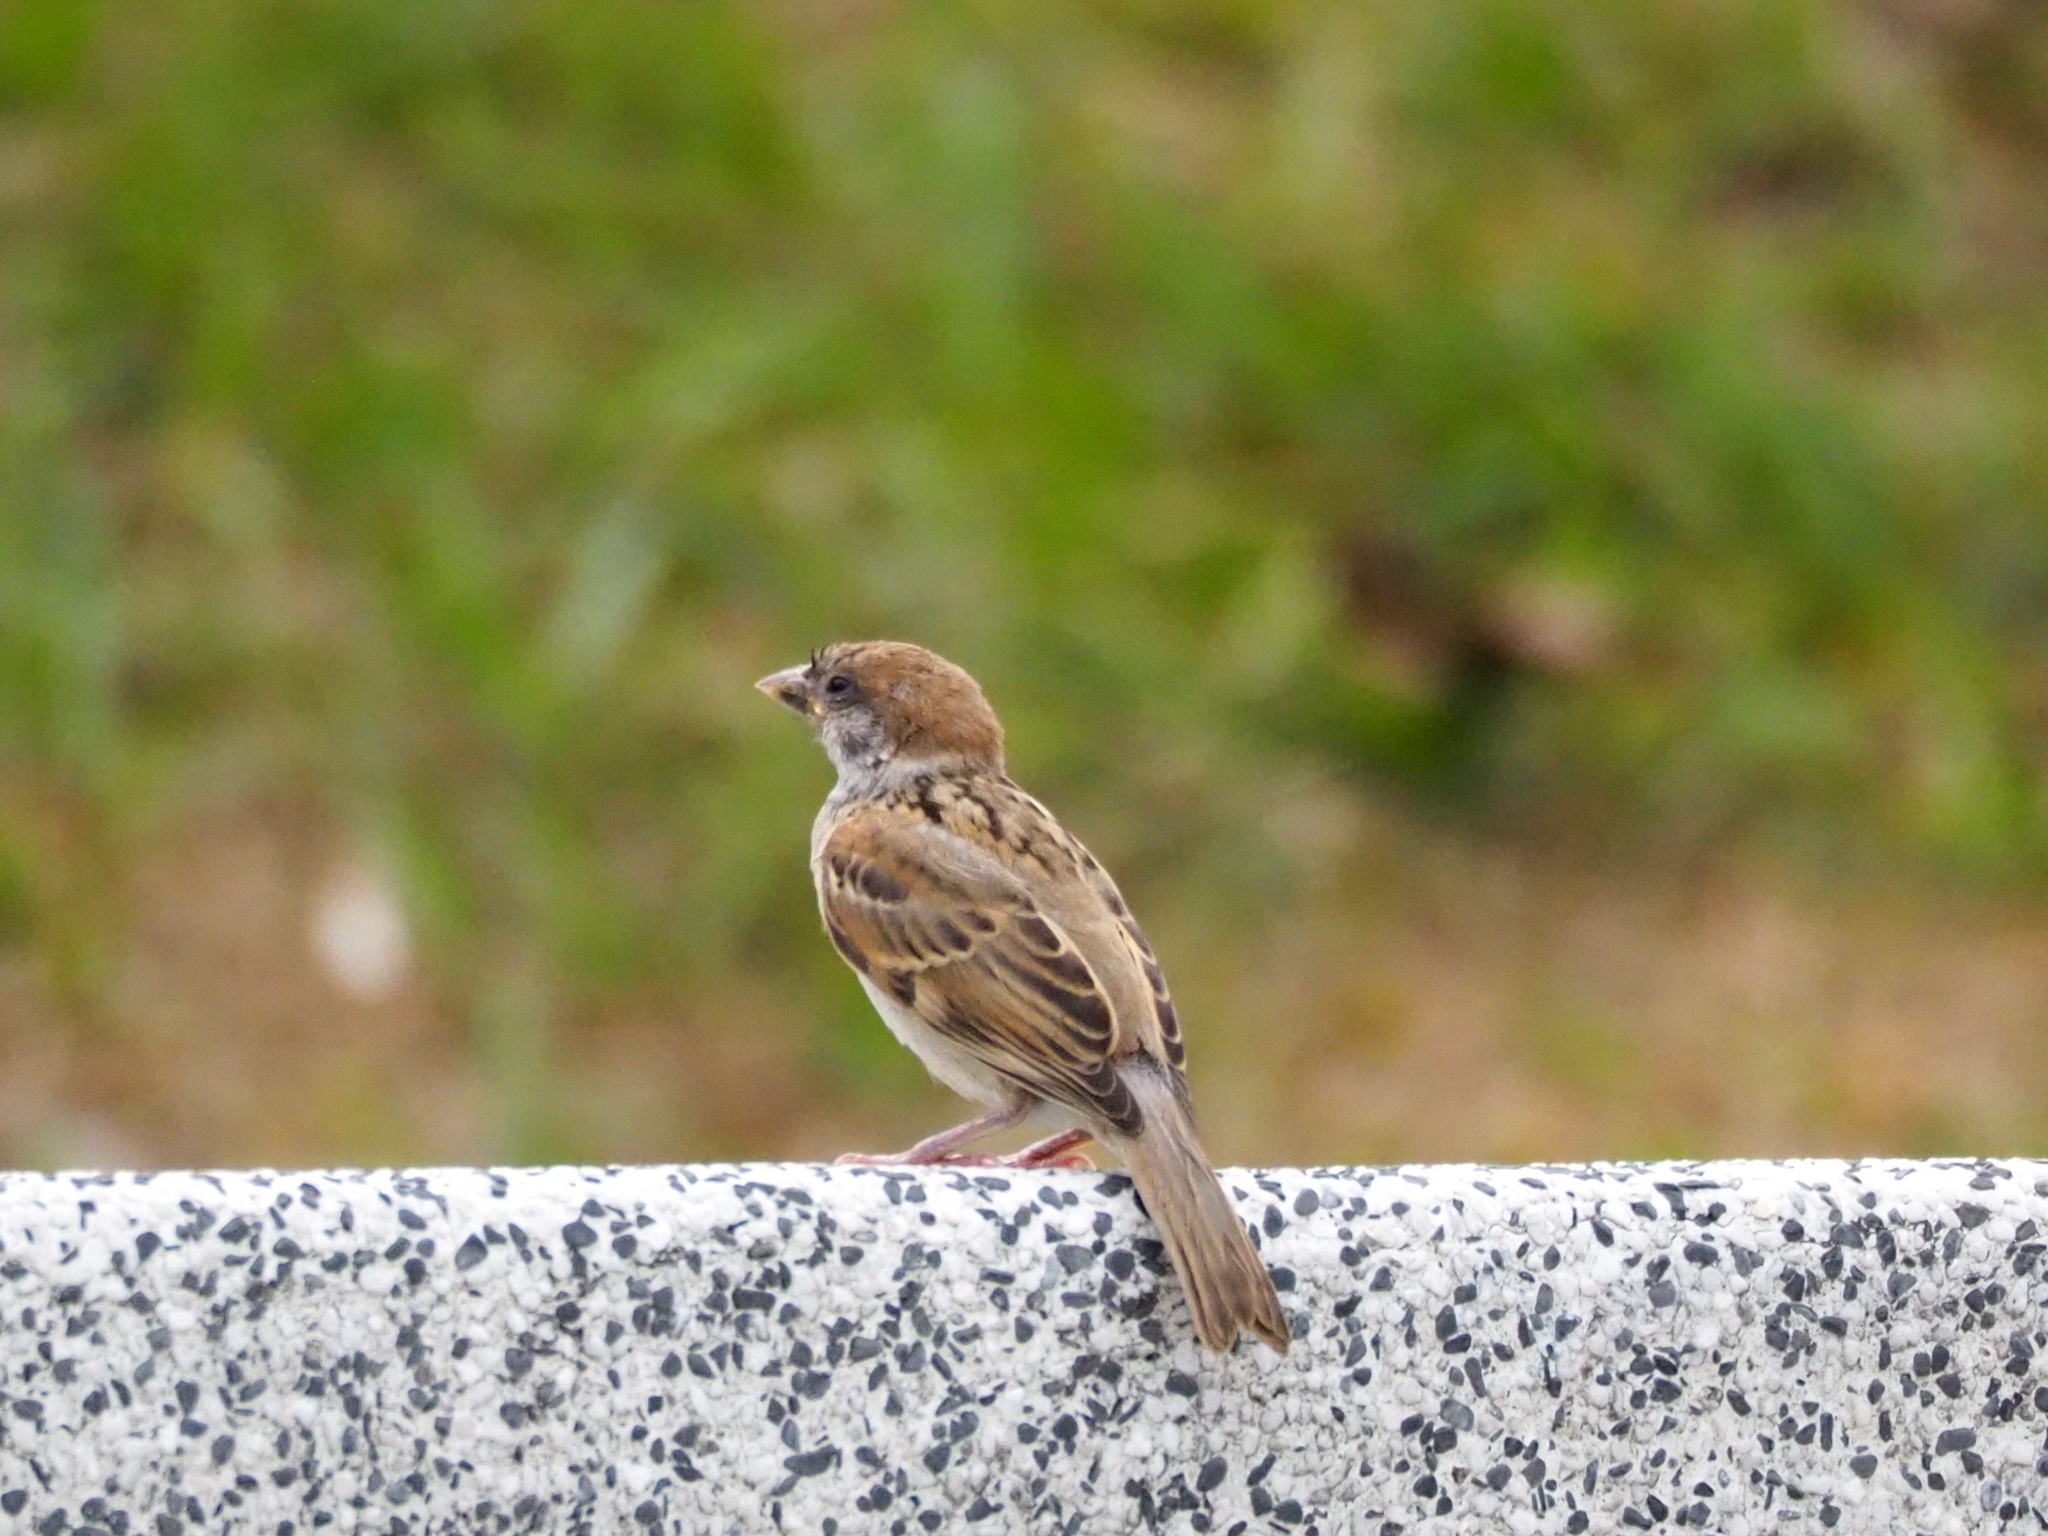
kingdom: Animalia
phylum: Chordata
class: Aves
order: Passeriformes
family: Passeridae
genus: Passer
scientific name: Passer montanus
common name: Eurasian tree sparrow
